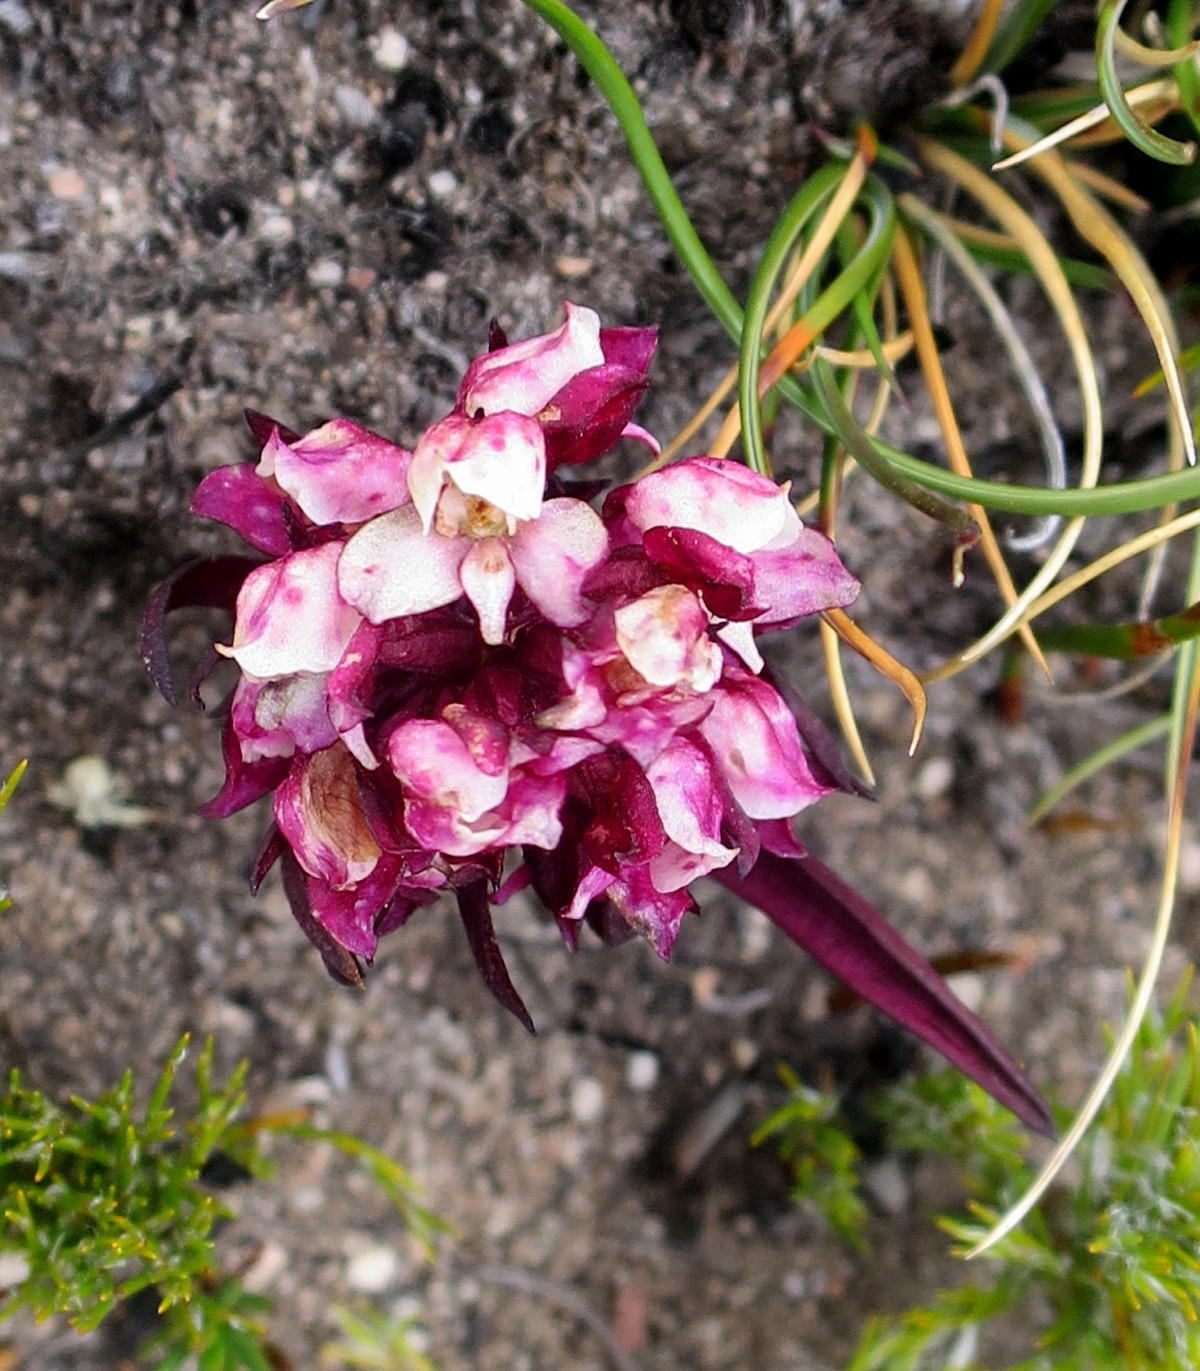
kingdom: Plantae
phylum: Tracheophyta
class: Liliopsida
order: Asparagales
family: Orchidaceae
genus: Disa
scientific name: Disa linderiana
